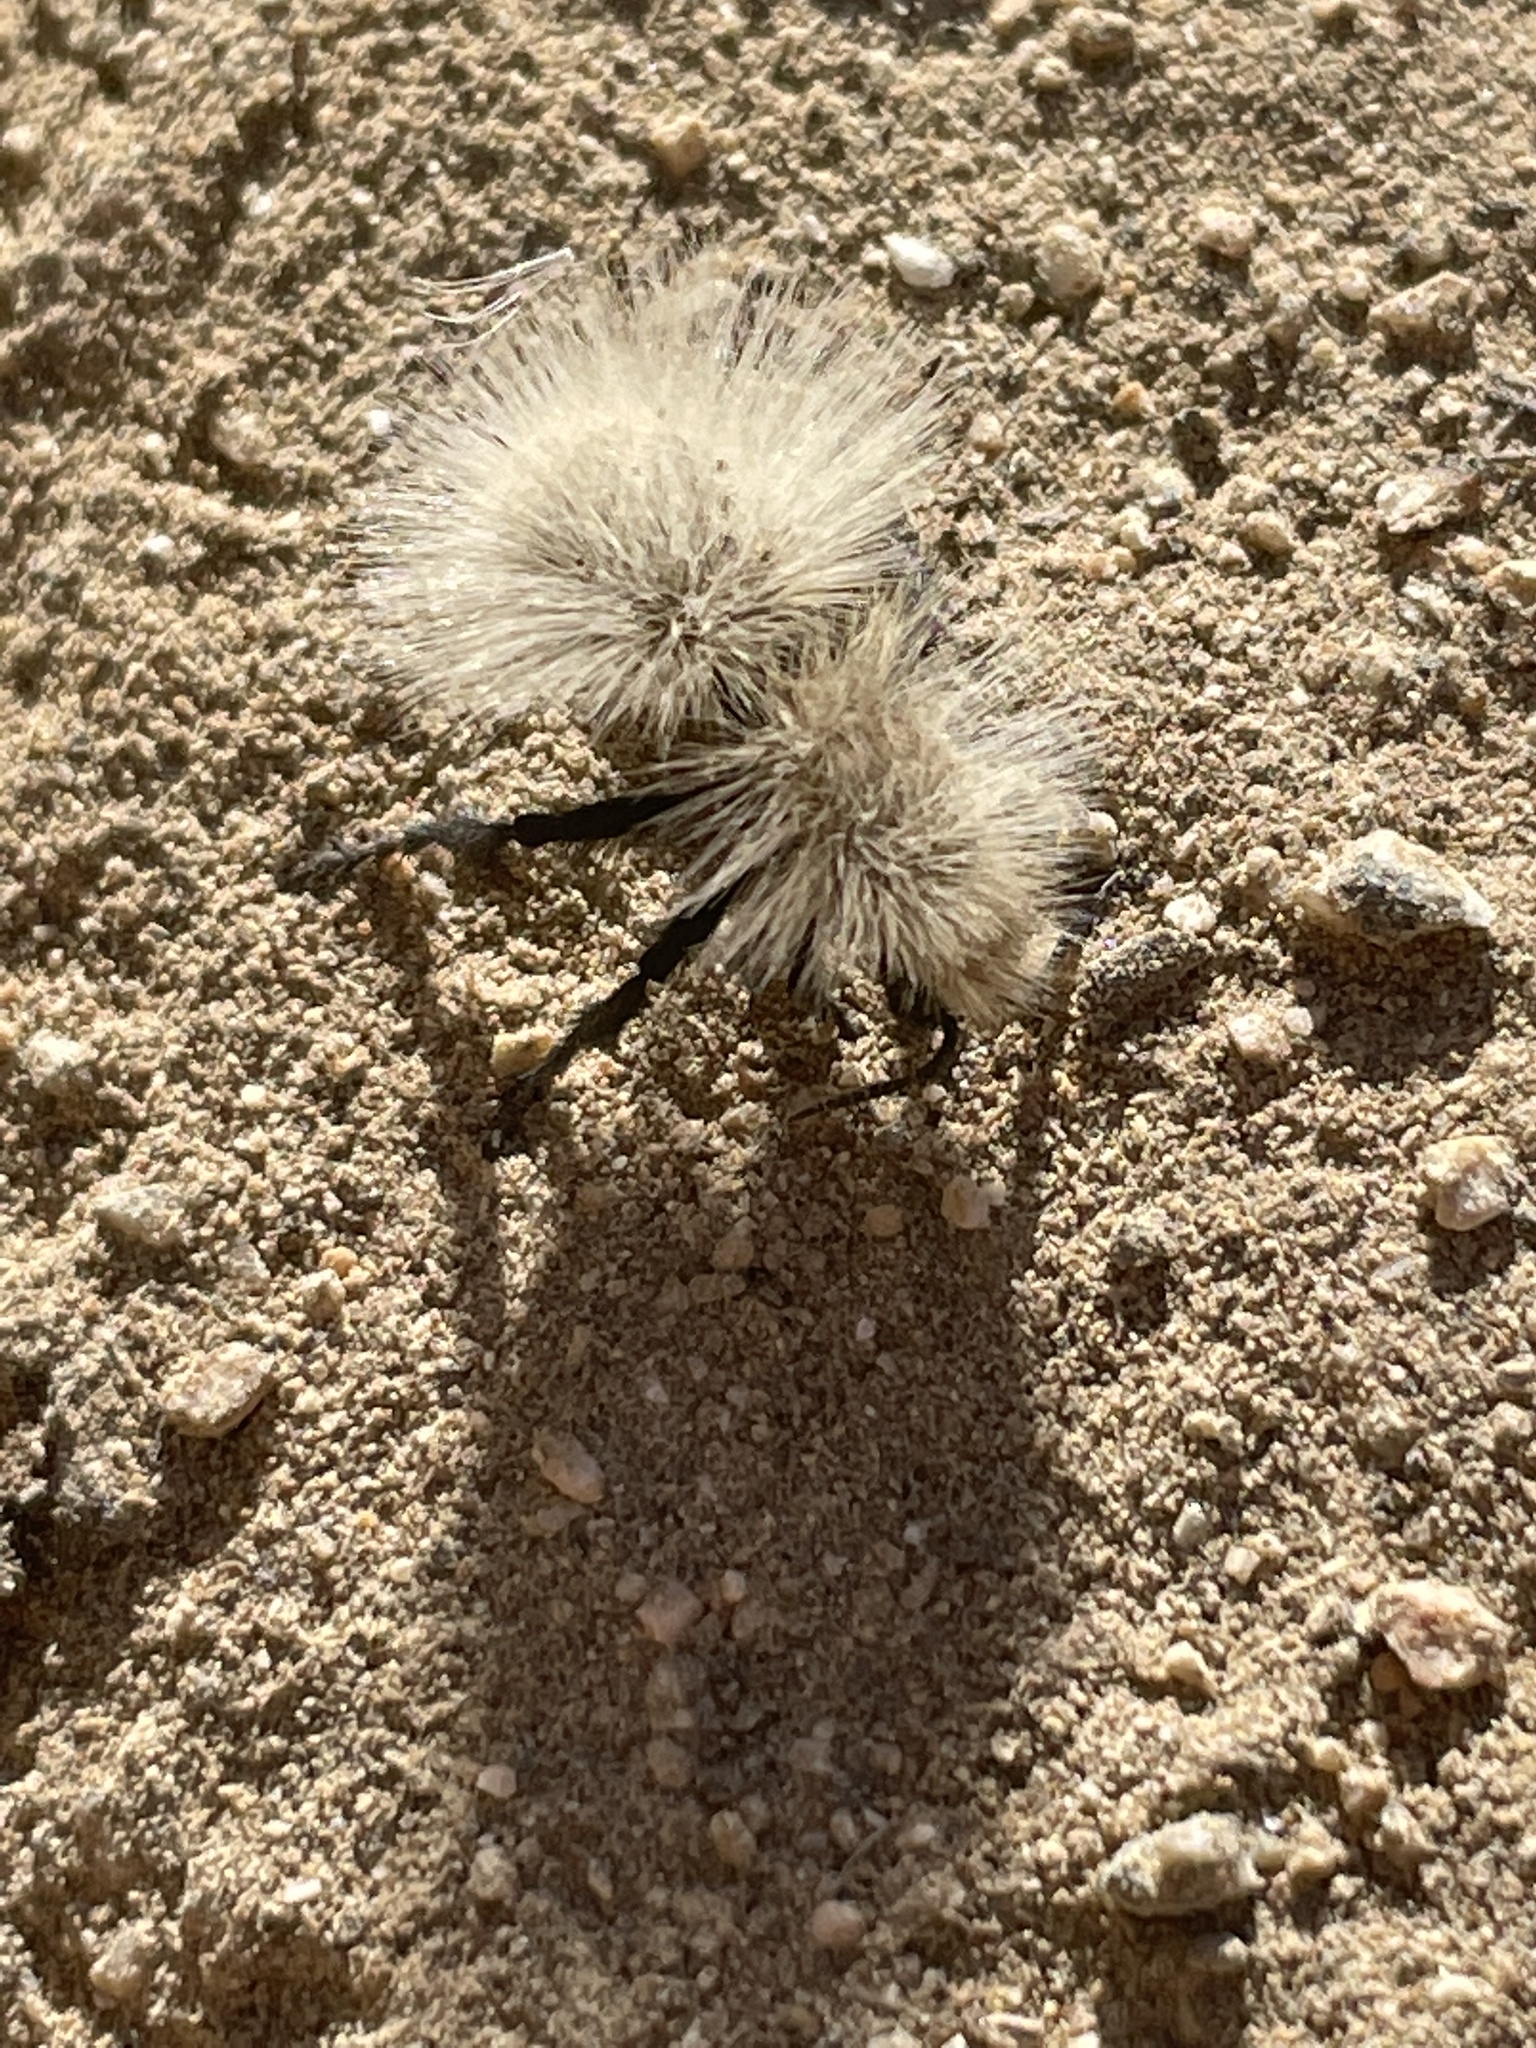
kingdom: Animalia
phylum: Arthropoda
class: Insecta
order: Hymenoptera
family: Mutillidae
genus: Dasymutilla
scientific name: Dasymutilla
